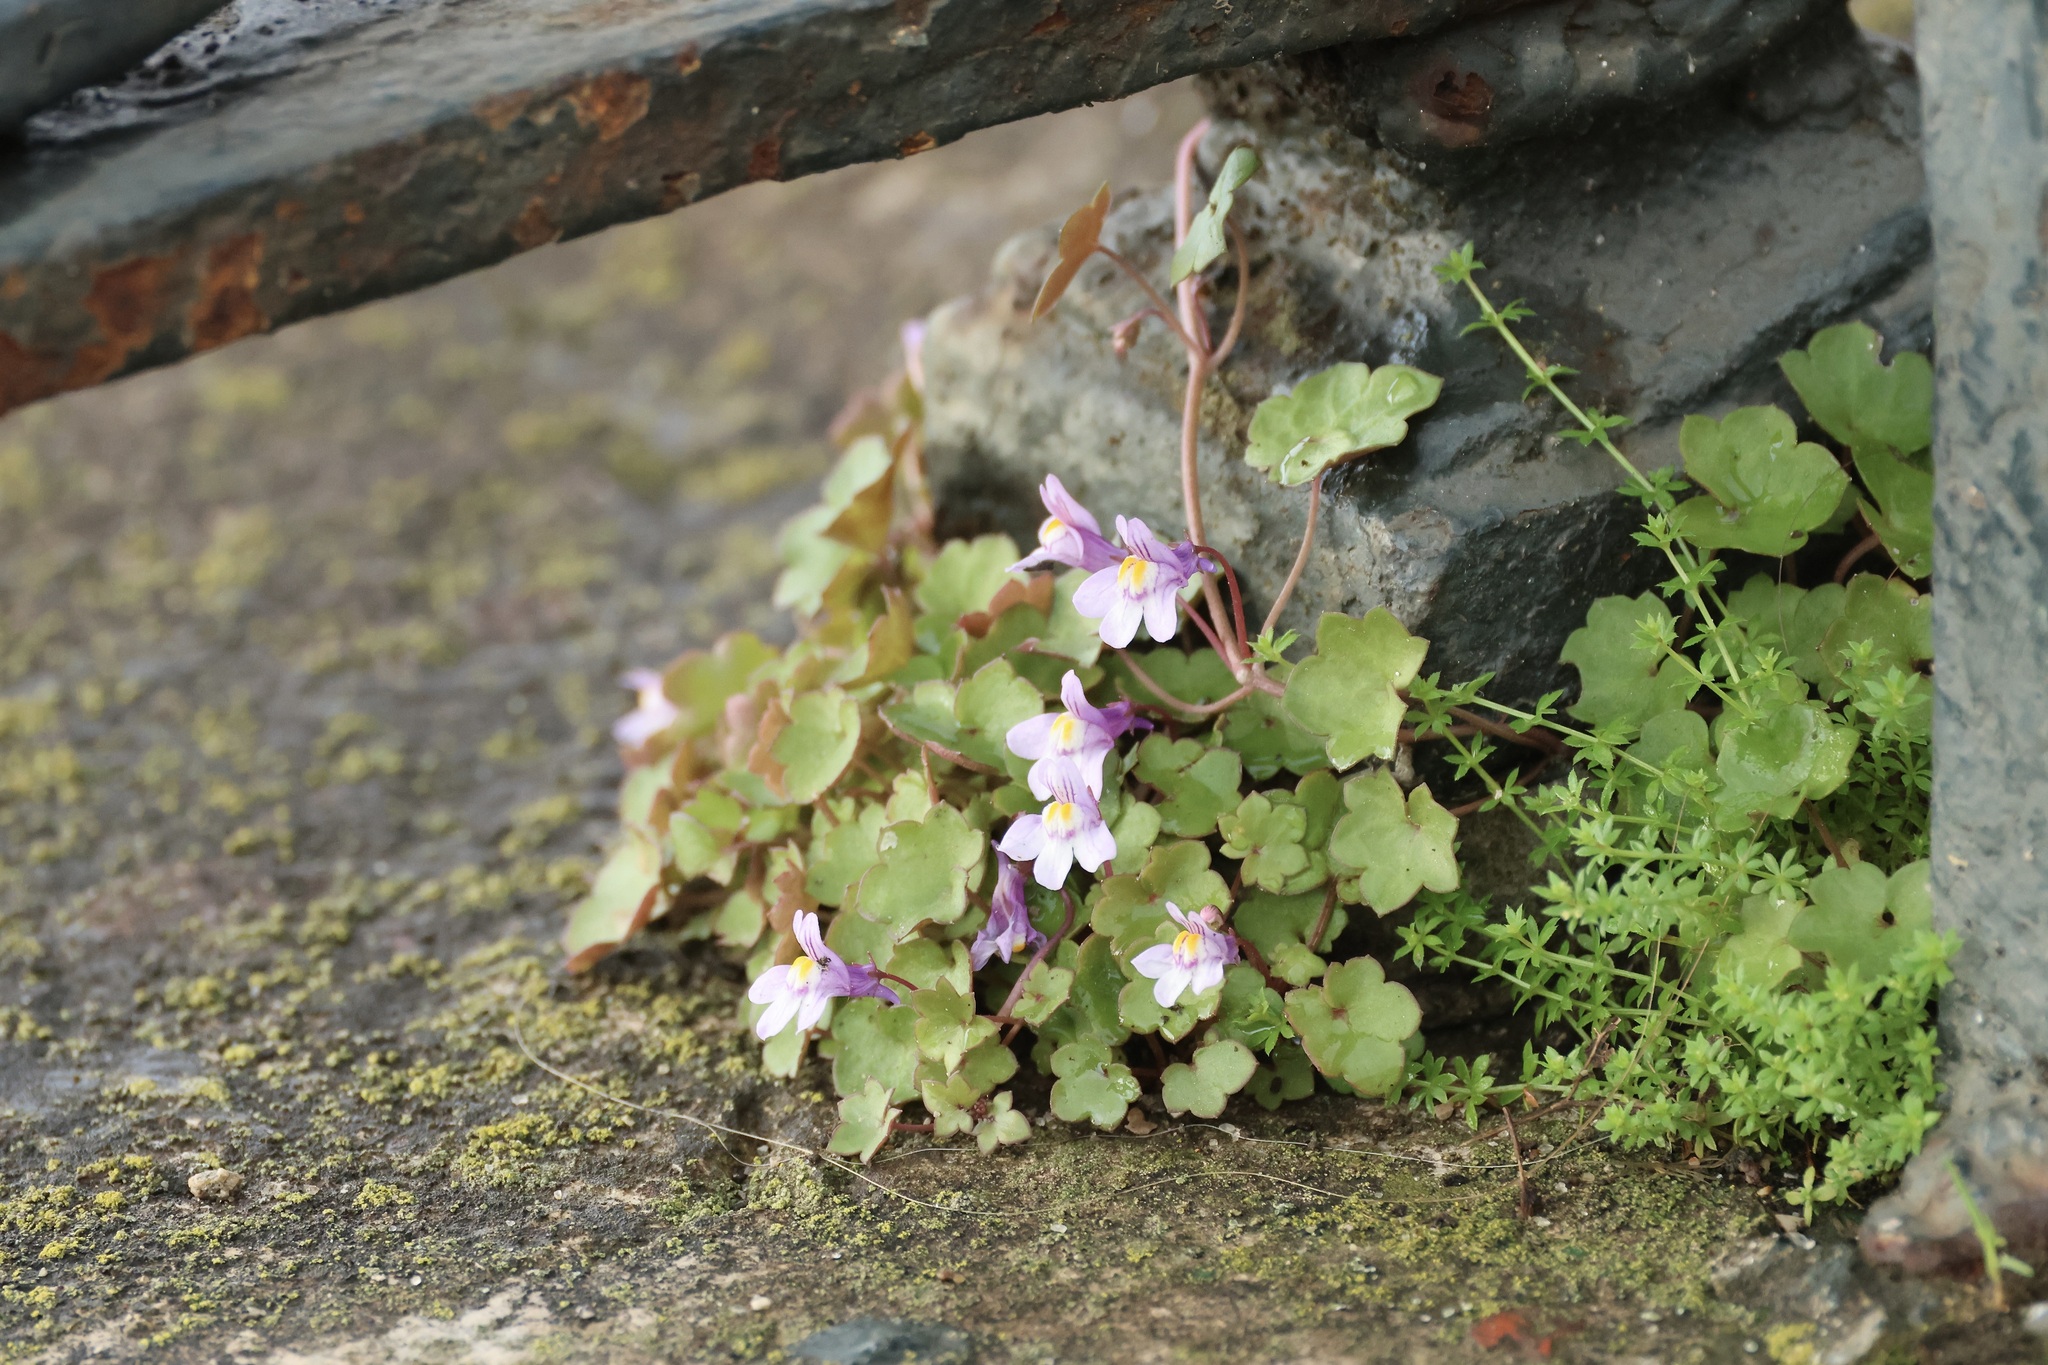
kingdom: Plantae
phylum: Tracheophyta
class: Magnoliopsida
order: Lamiales
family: Plantaginaceae
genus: Cymbalaria
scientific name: Cymbalaria muralis
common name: Ivy-leaved toadflax
